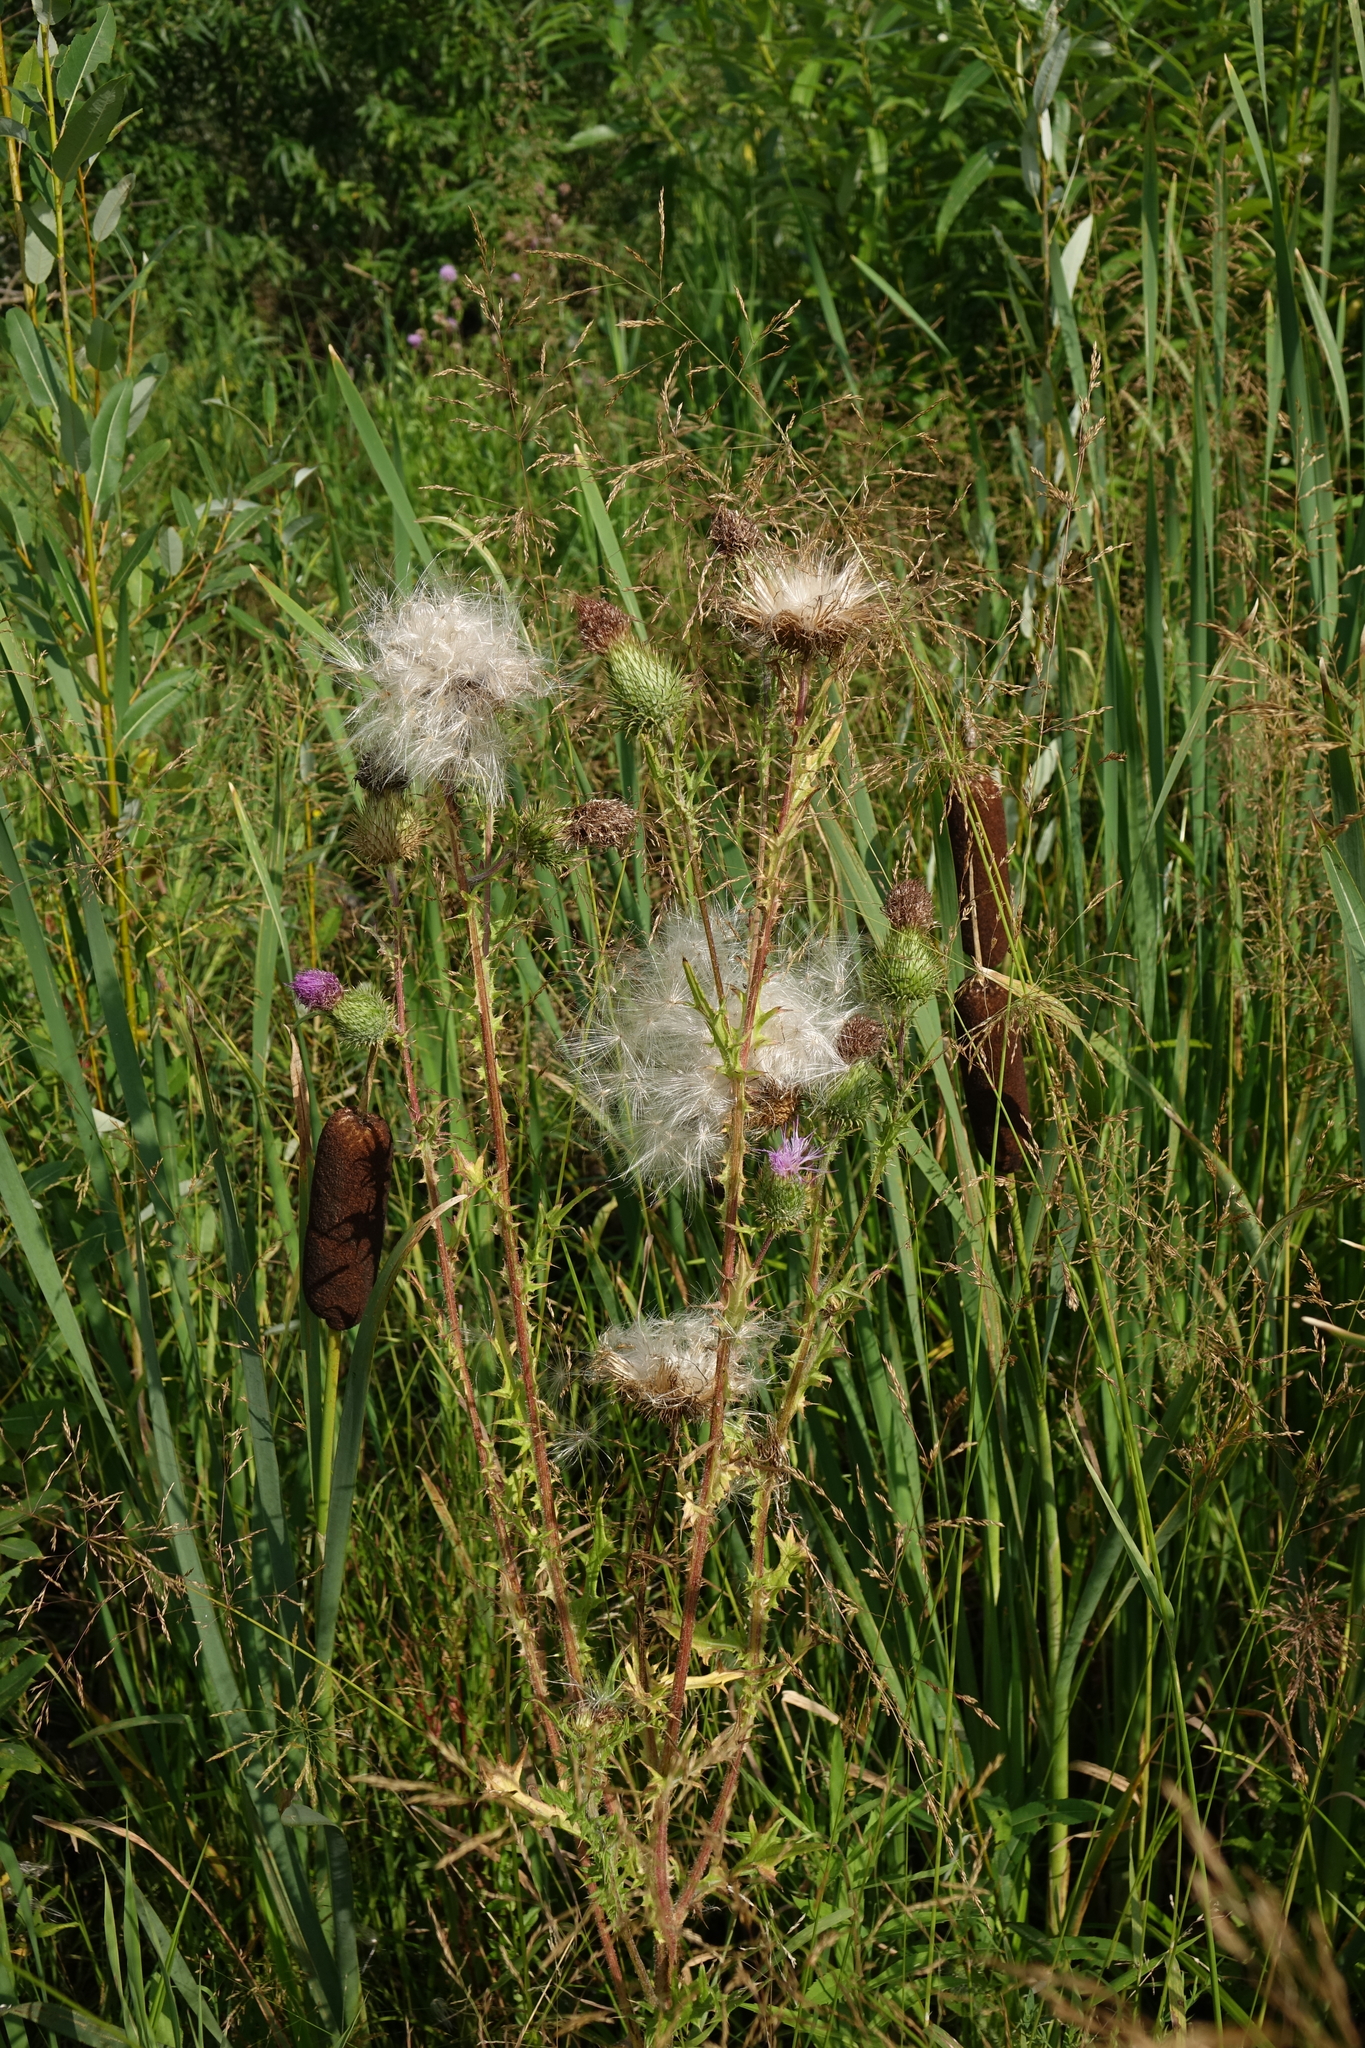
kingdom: Plantae
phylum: Tracheophyta
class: Magnoliopsida
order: Asterales
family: Asteraceae
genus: Cirsium
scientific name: Cirsium vulgare
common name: Bull thistle
